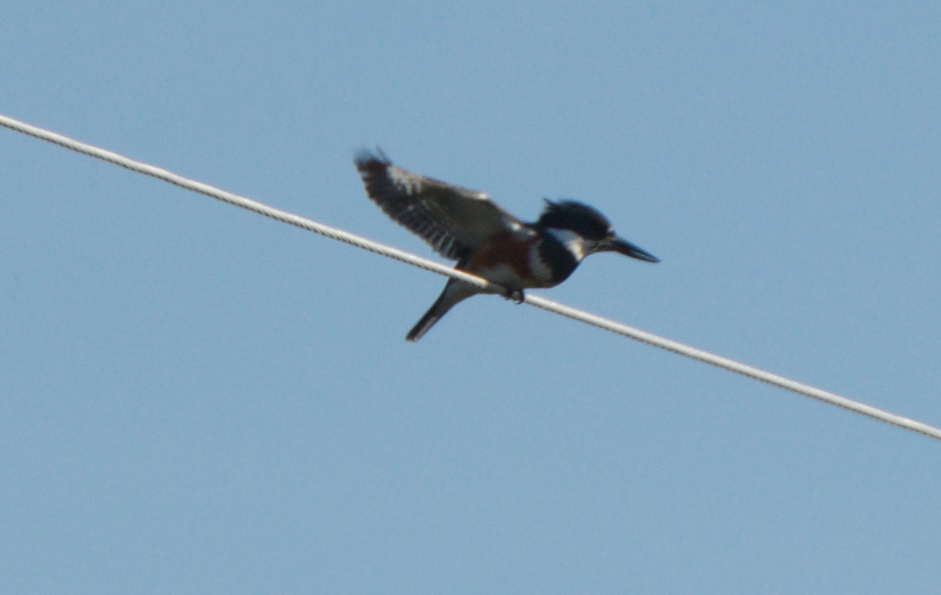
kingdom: Animalia
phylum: Chordata
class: Aves
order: Coraciiformes
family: Alcedinidae
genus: Megaceryle
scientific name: Megaceryle alcyon
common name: Belted kingfisher
